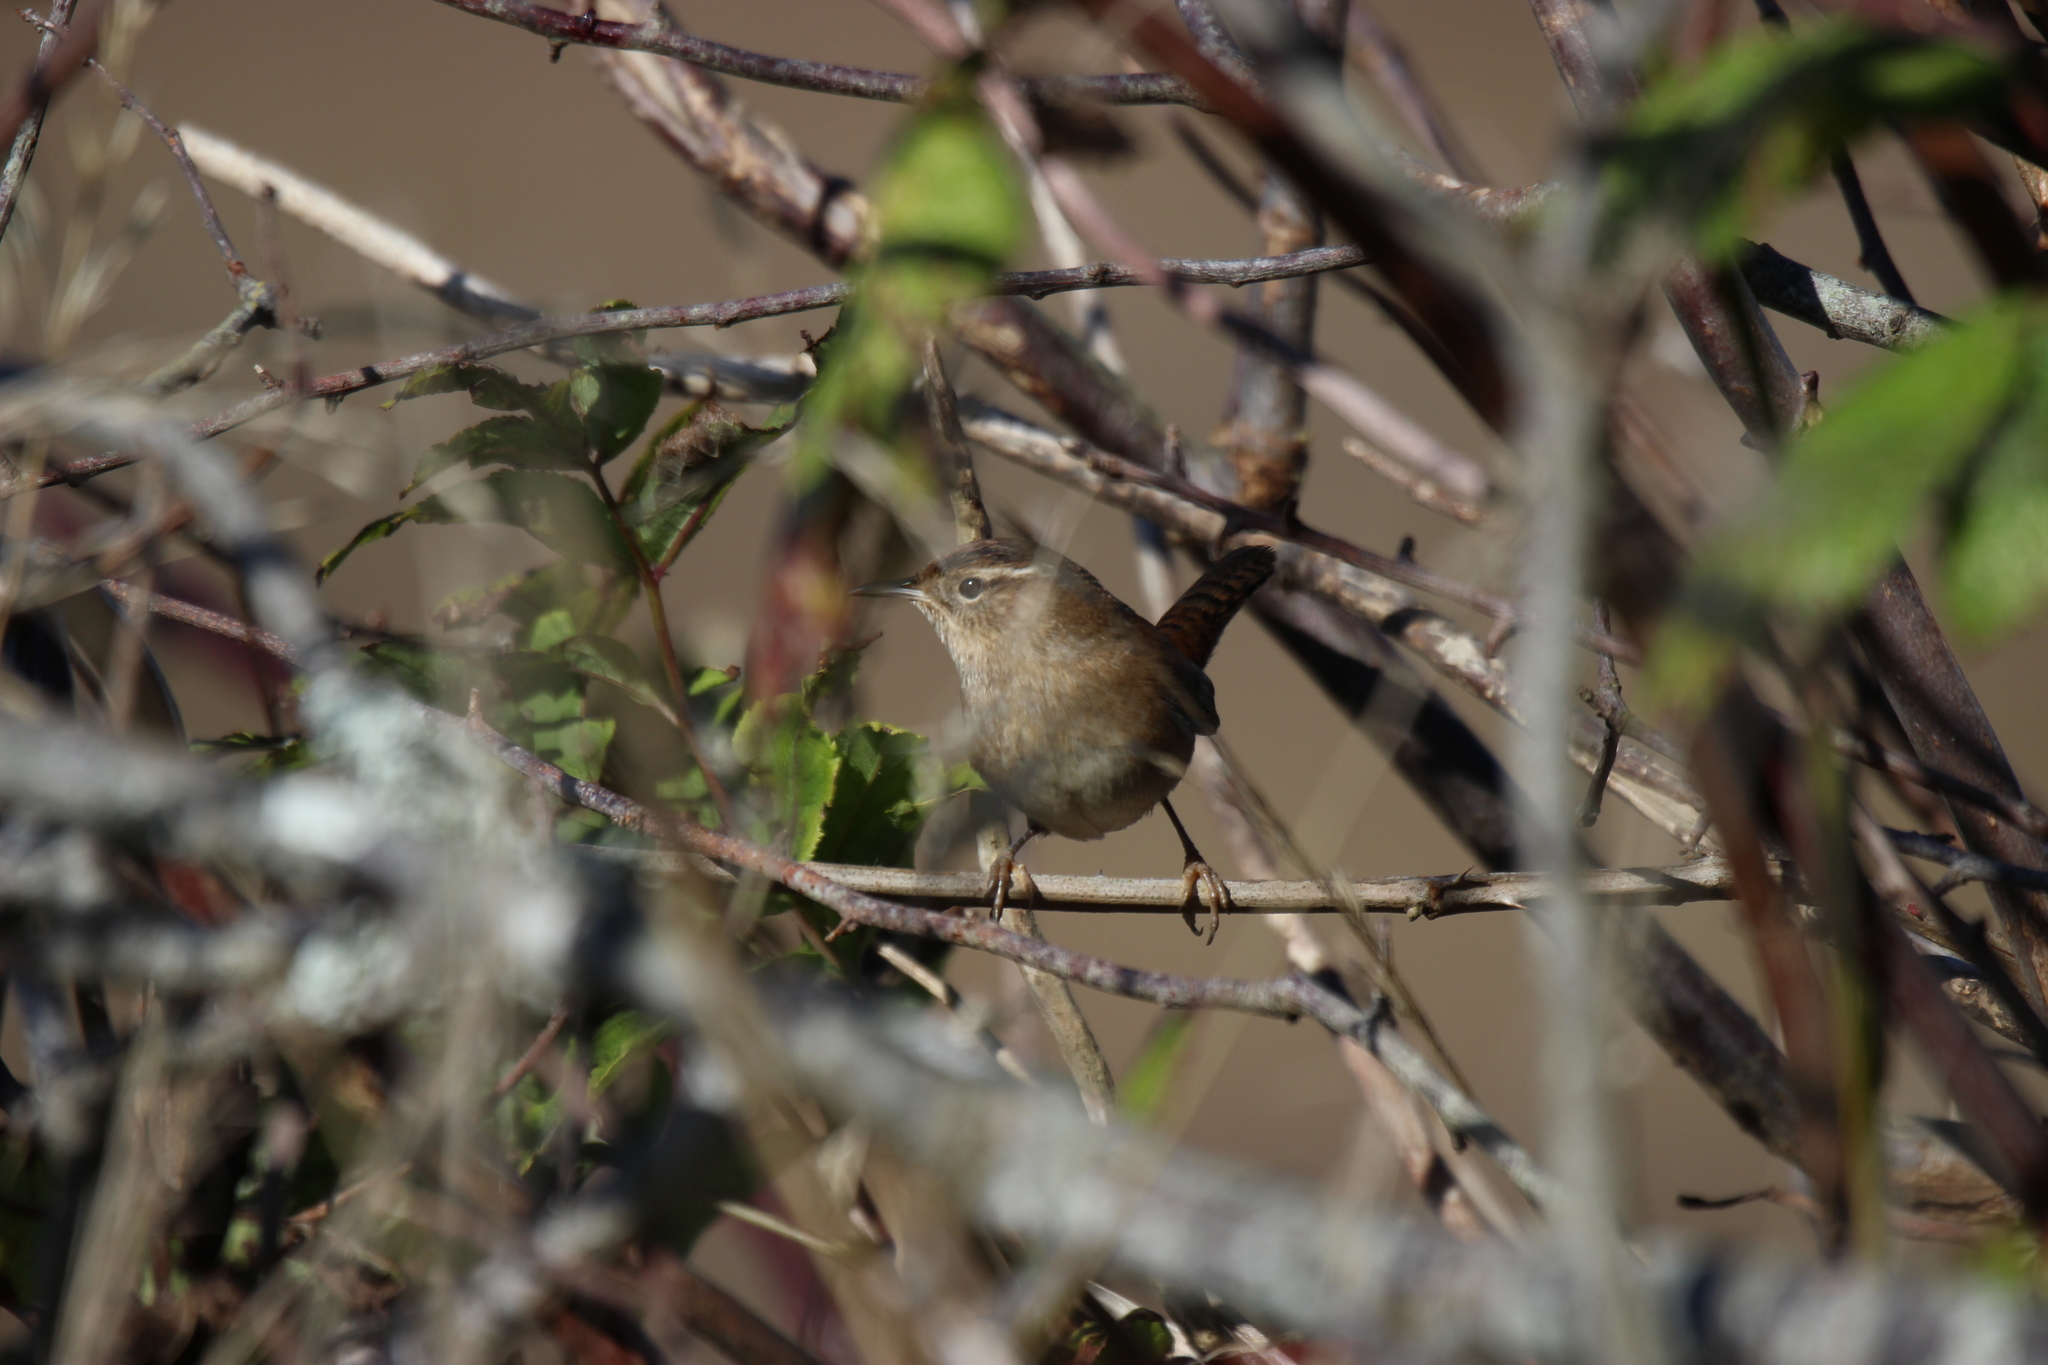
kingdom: Animalia
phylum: Chordata
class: Aves
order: Passeriformes
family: Troglodytidae
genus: Cistothorus
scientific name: Cistothorus palustris
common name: Marsh wren
